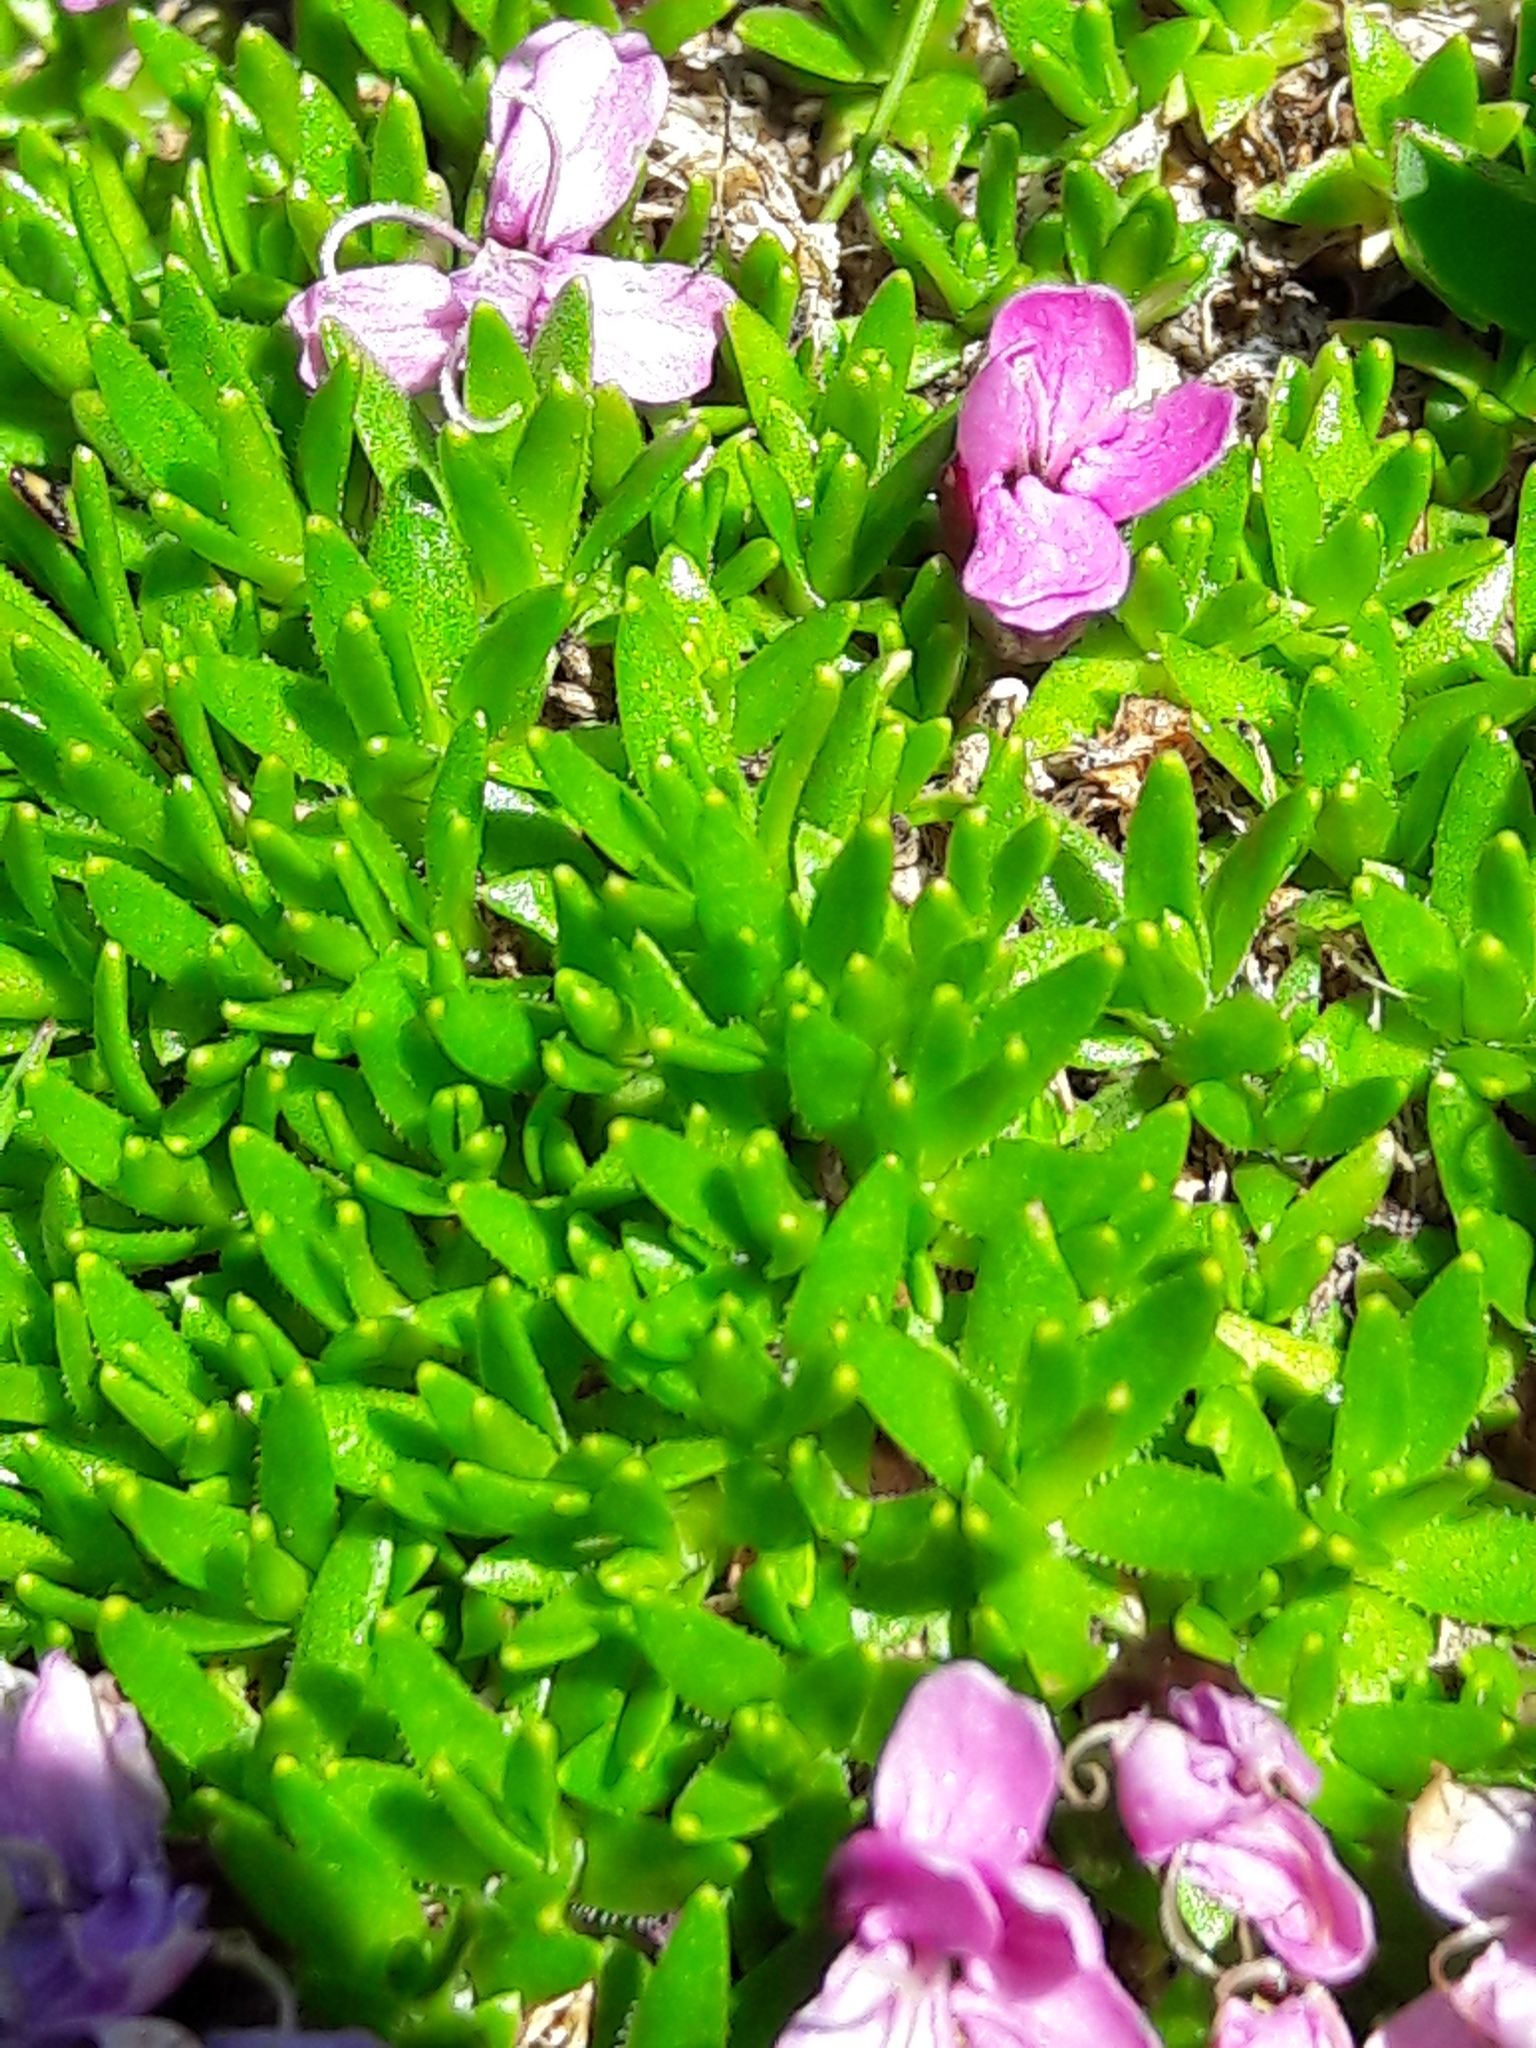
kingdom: Plantae
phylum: Tracheophyta
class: Magnoliopsida
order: Caryophyllales
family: Caryophyllaceae
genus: Silene
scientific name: Silene acaulis
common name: Moss campion
